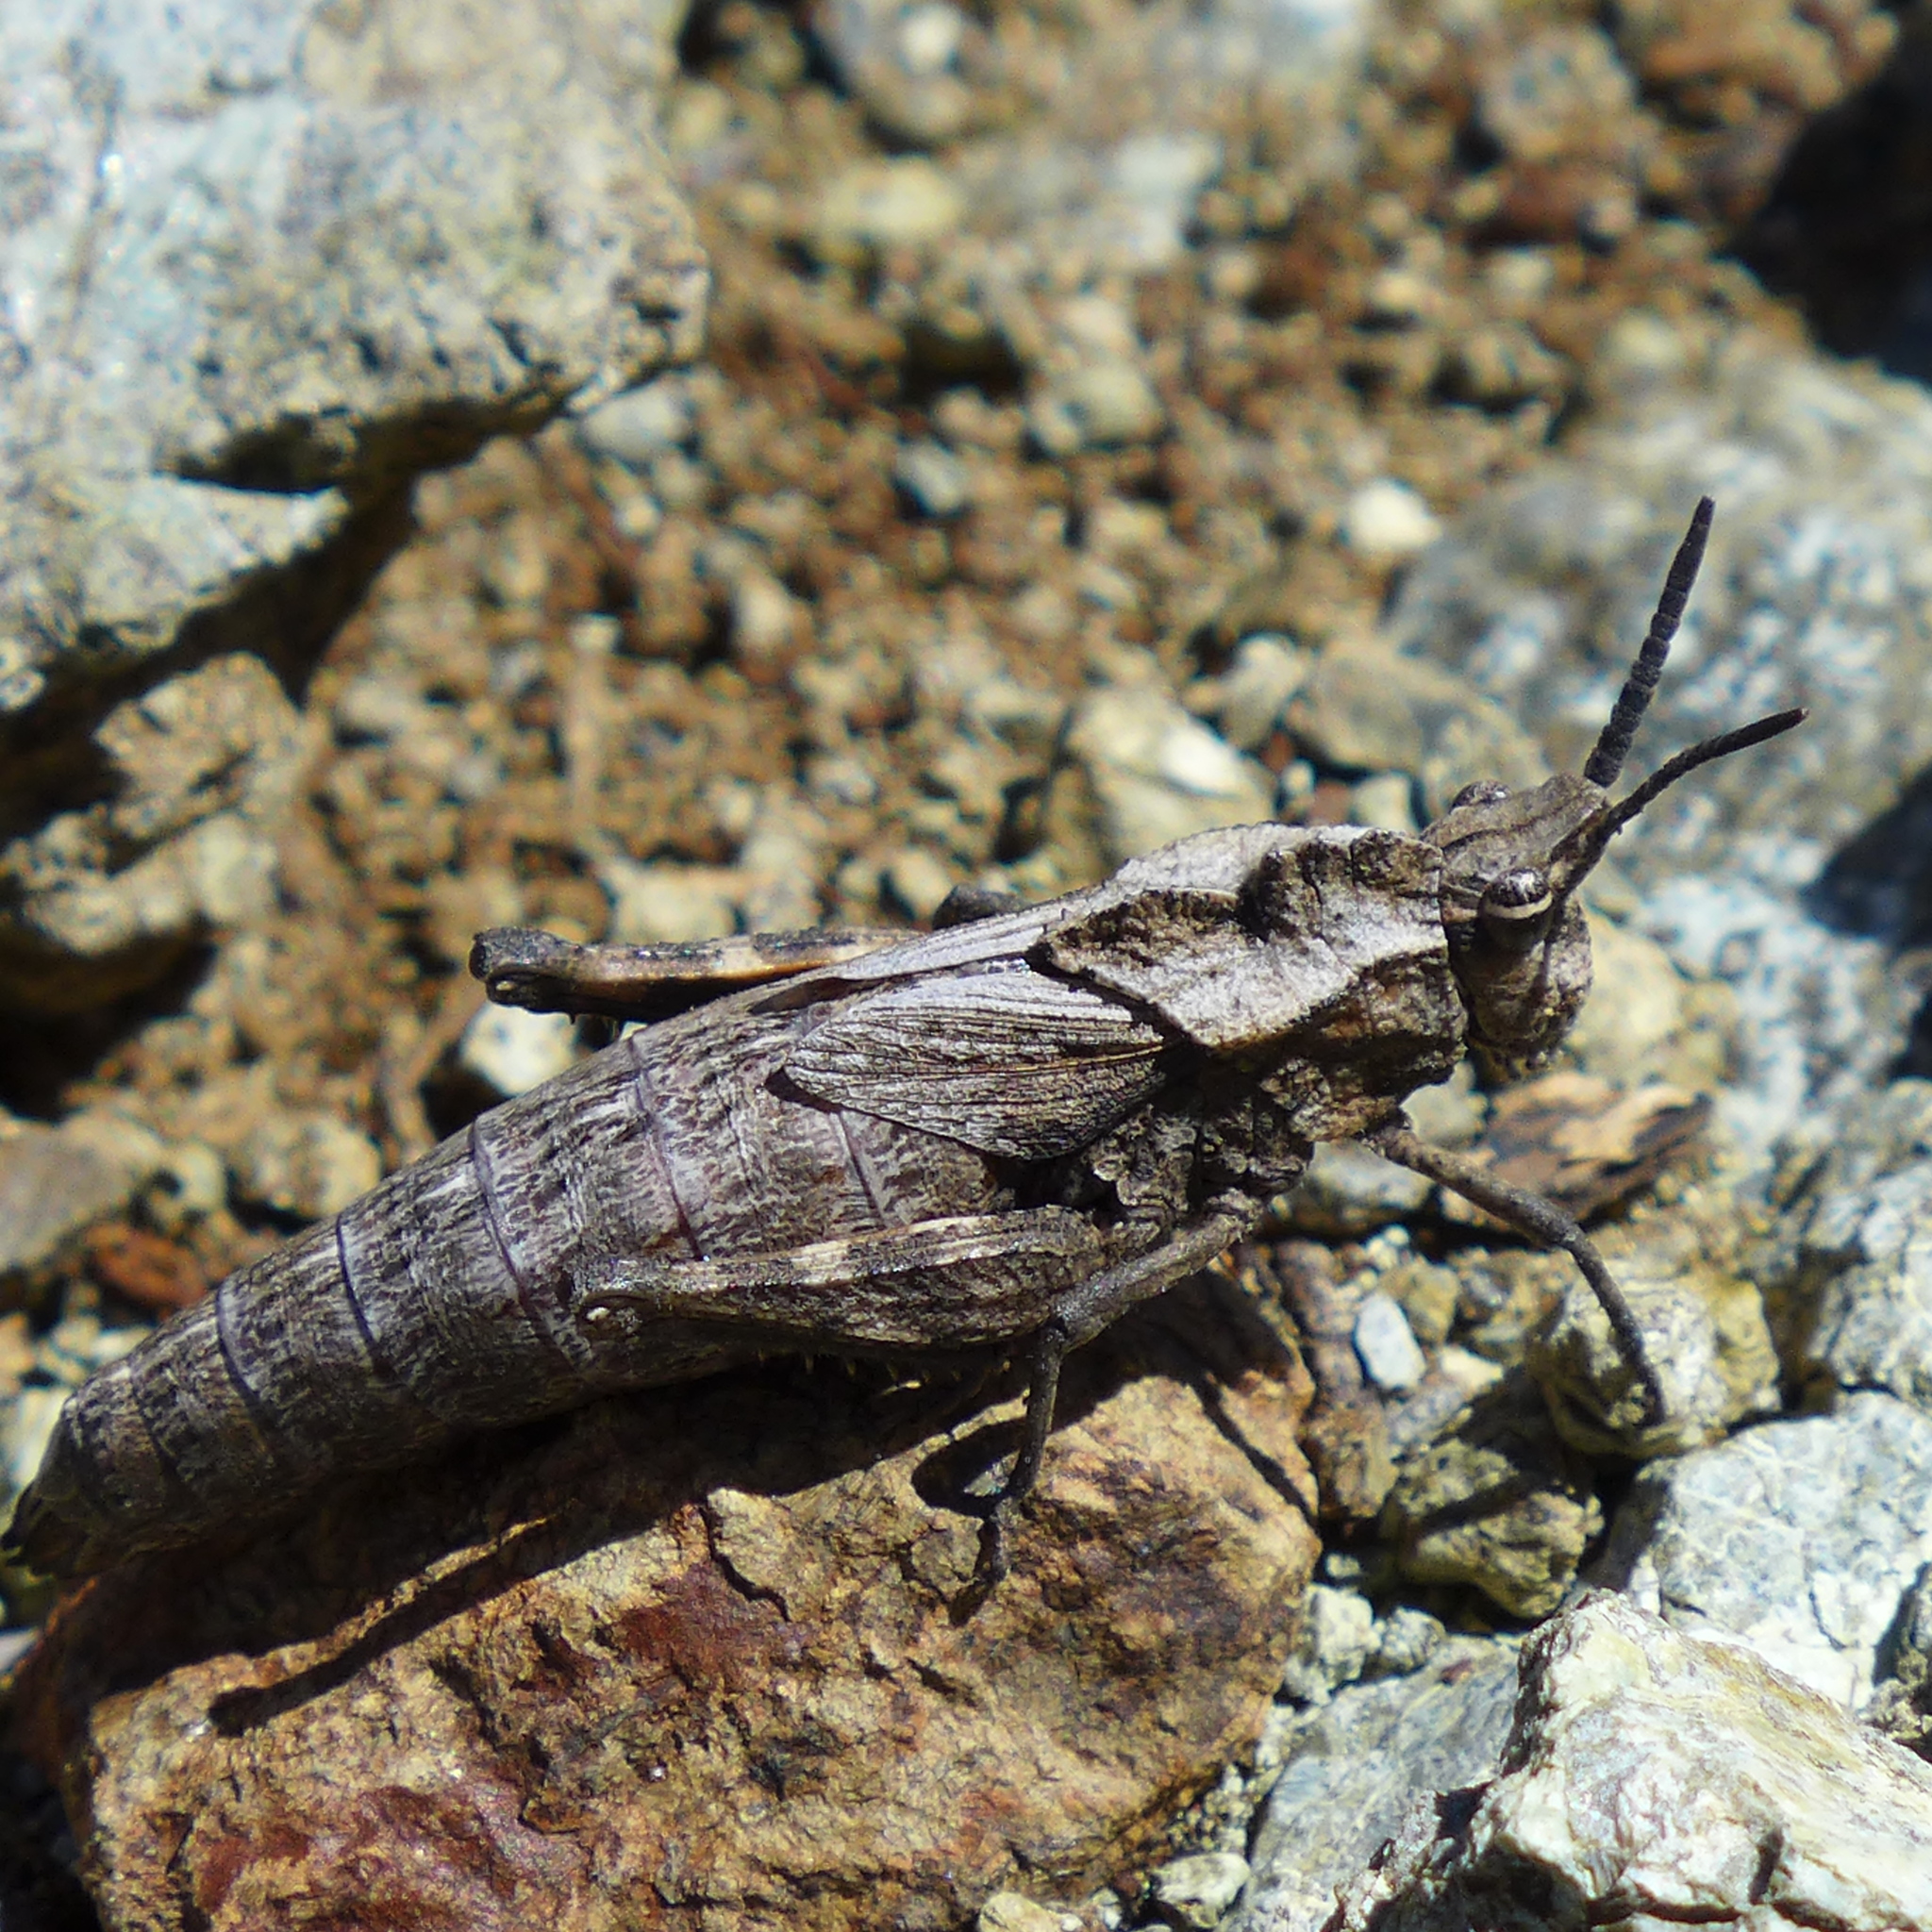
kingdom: Animalia
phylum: Arthropoda
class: Insecta
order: Orthoptera
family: Romaleidae
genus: Dracotettix
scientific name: Dracotettix monstrosus
